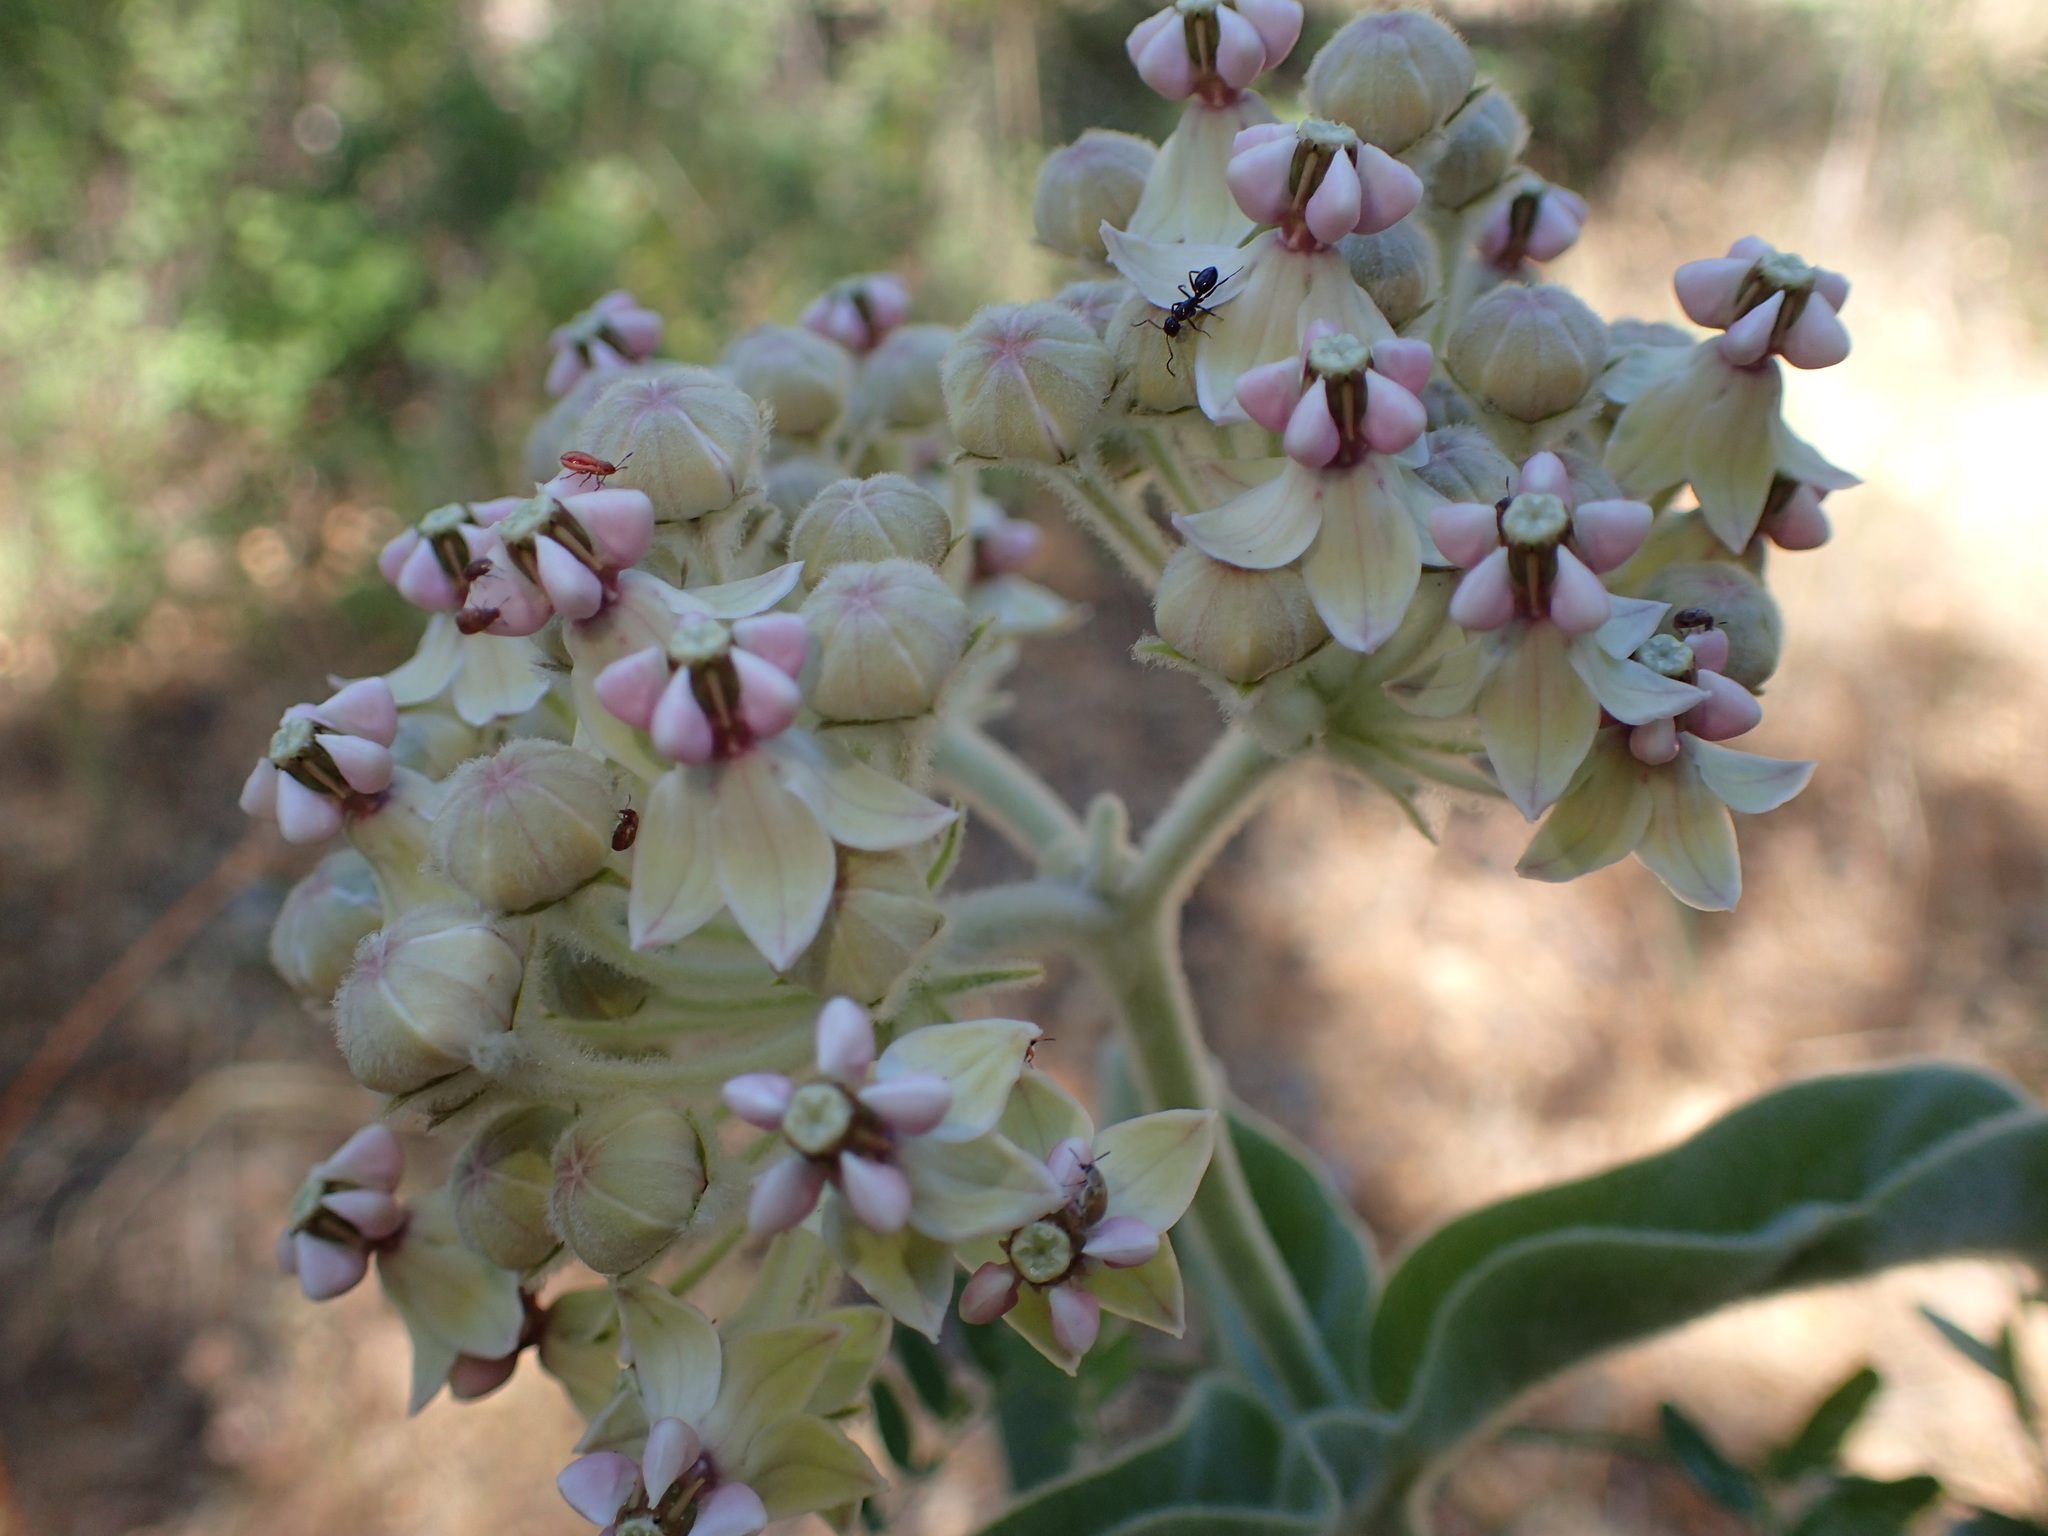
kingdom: Plantae
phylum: Tracheophyta
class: Magnoliopsida
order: Gentianales
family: Apocynaceae
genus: Asclepias
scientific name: Asclepias eriocarpa
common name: Indian milkweed
